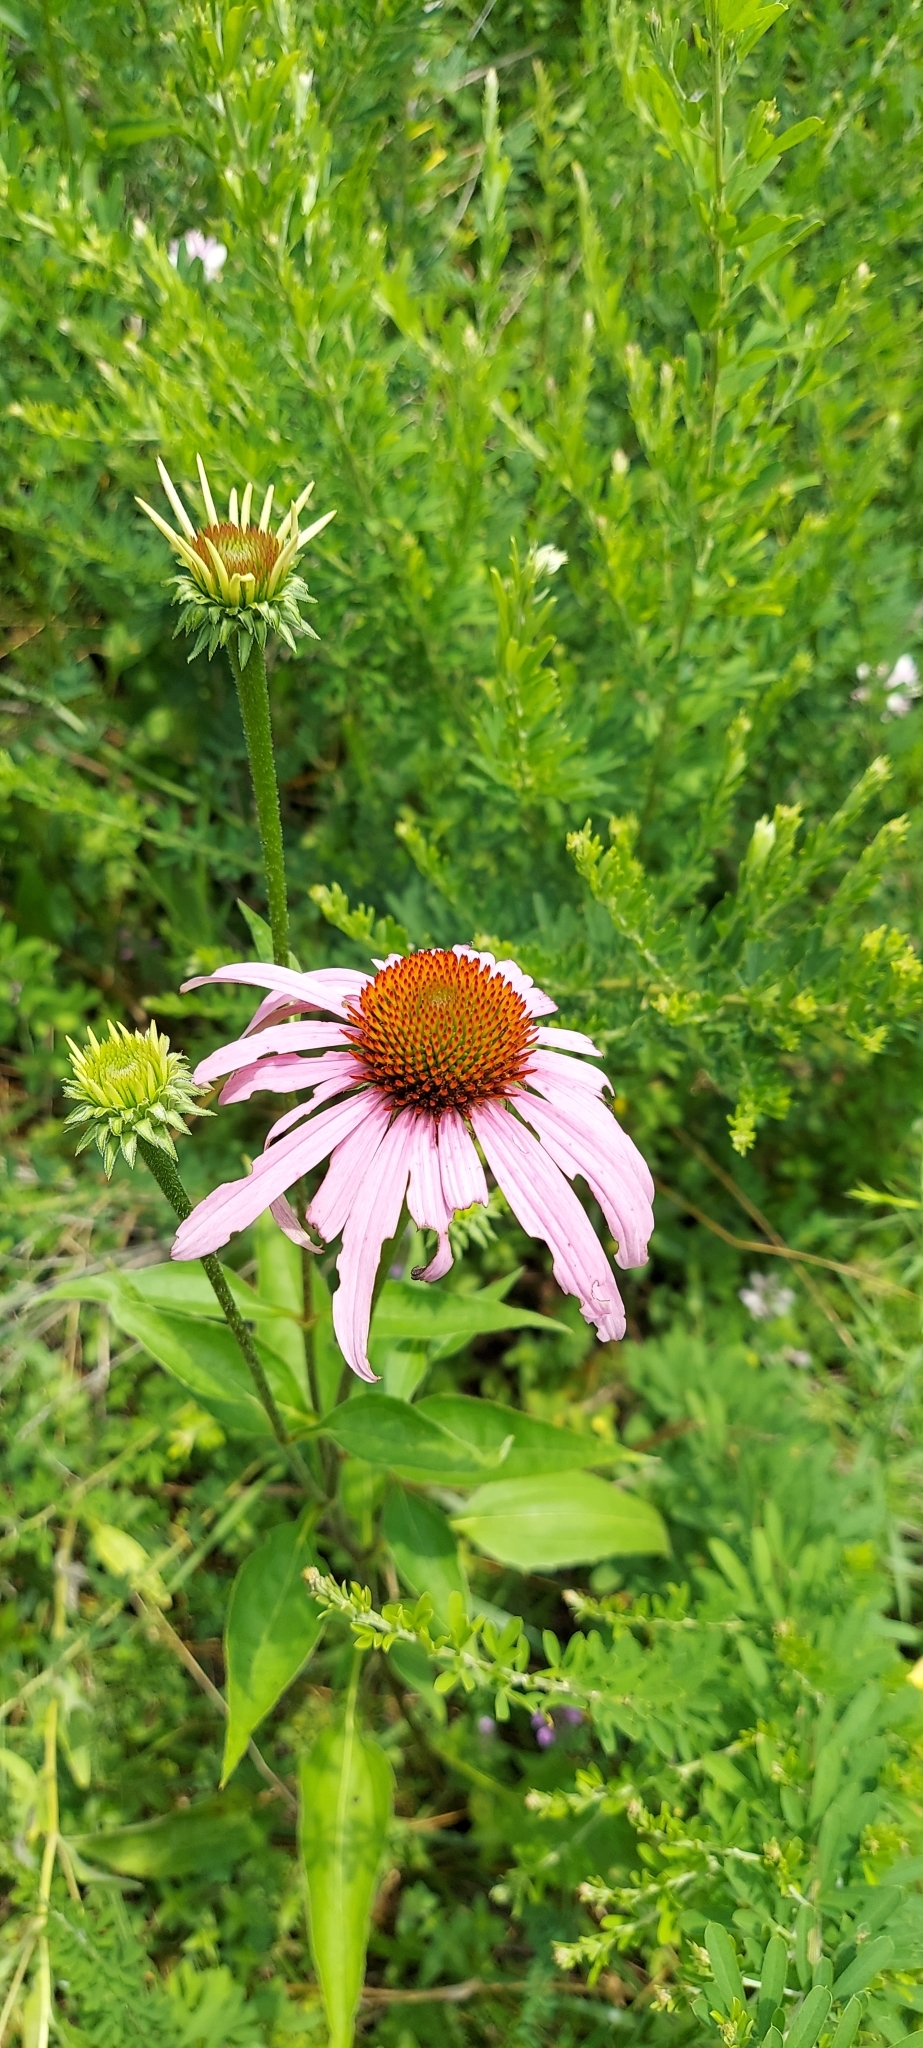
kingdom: Plantae
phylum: Tracheophyta
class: Magnoliopsida
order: Asterales
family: Asteraceae
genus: Echinacea
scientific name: Echinacea purpurea
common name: Broad-leaved purple coneflower
